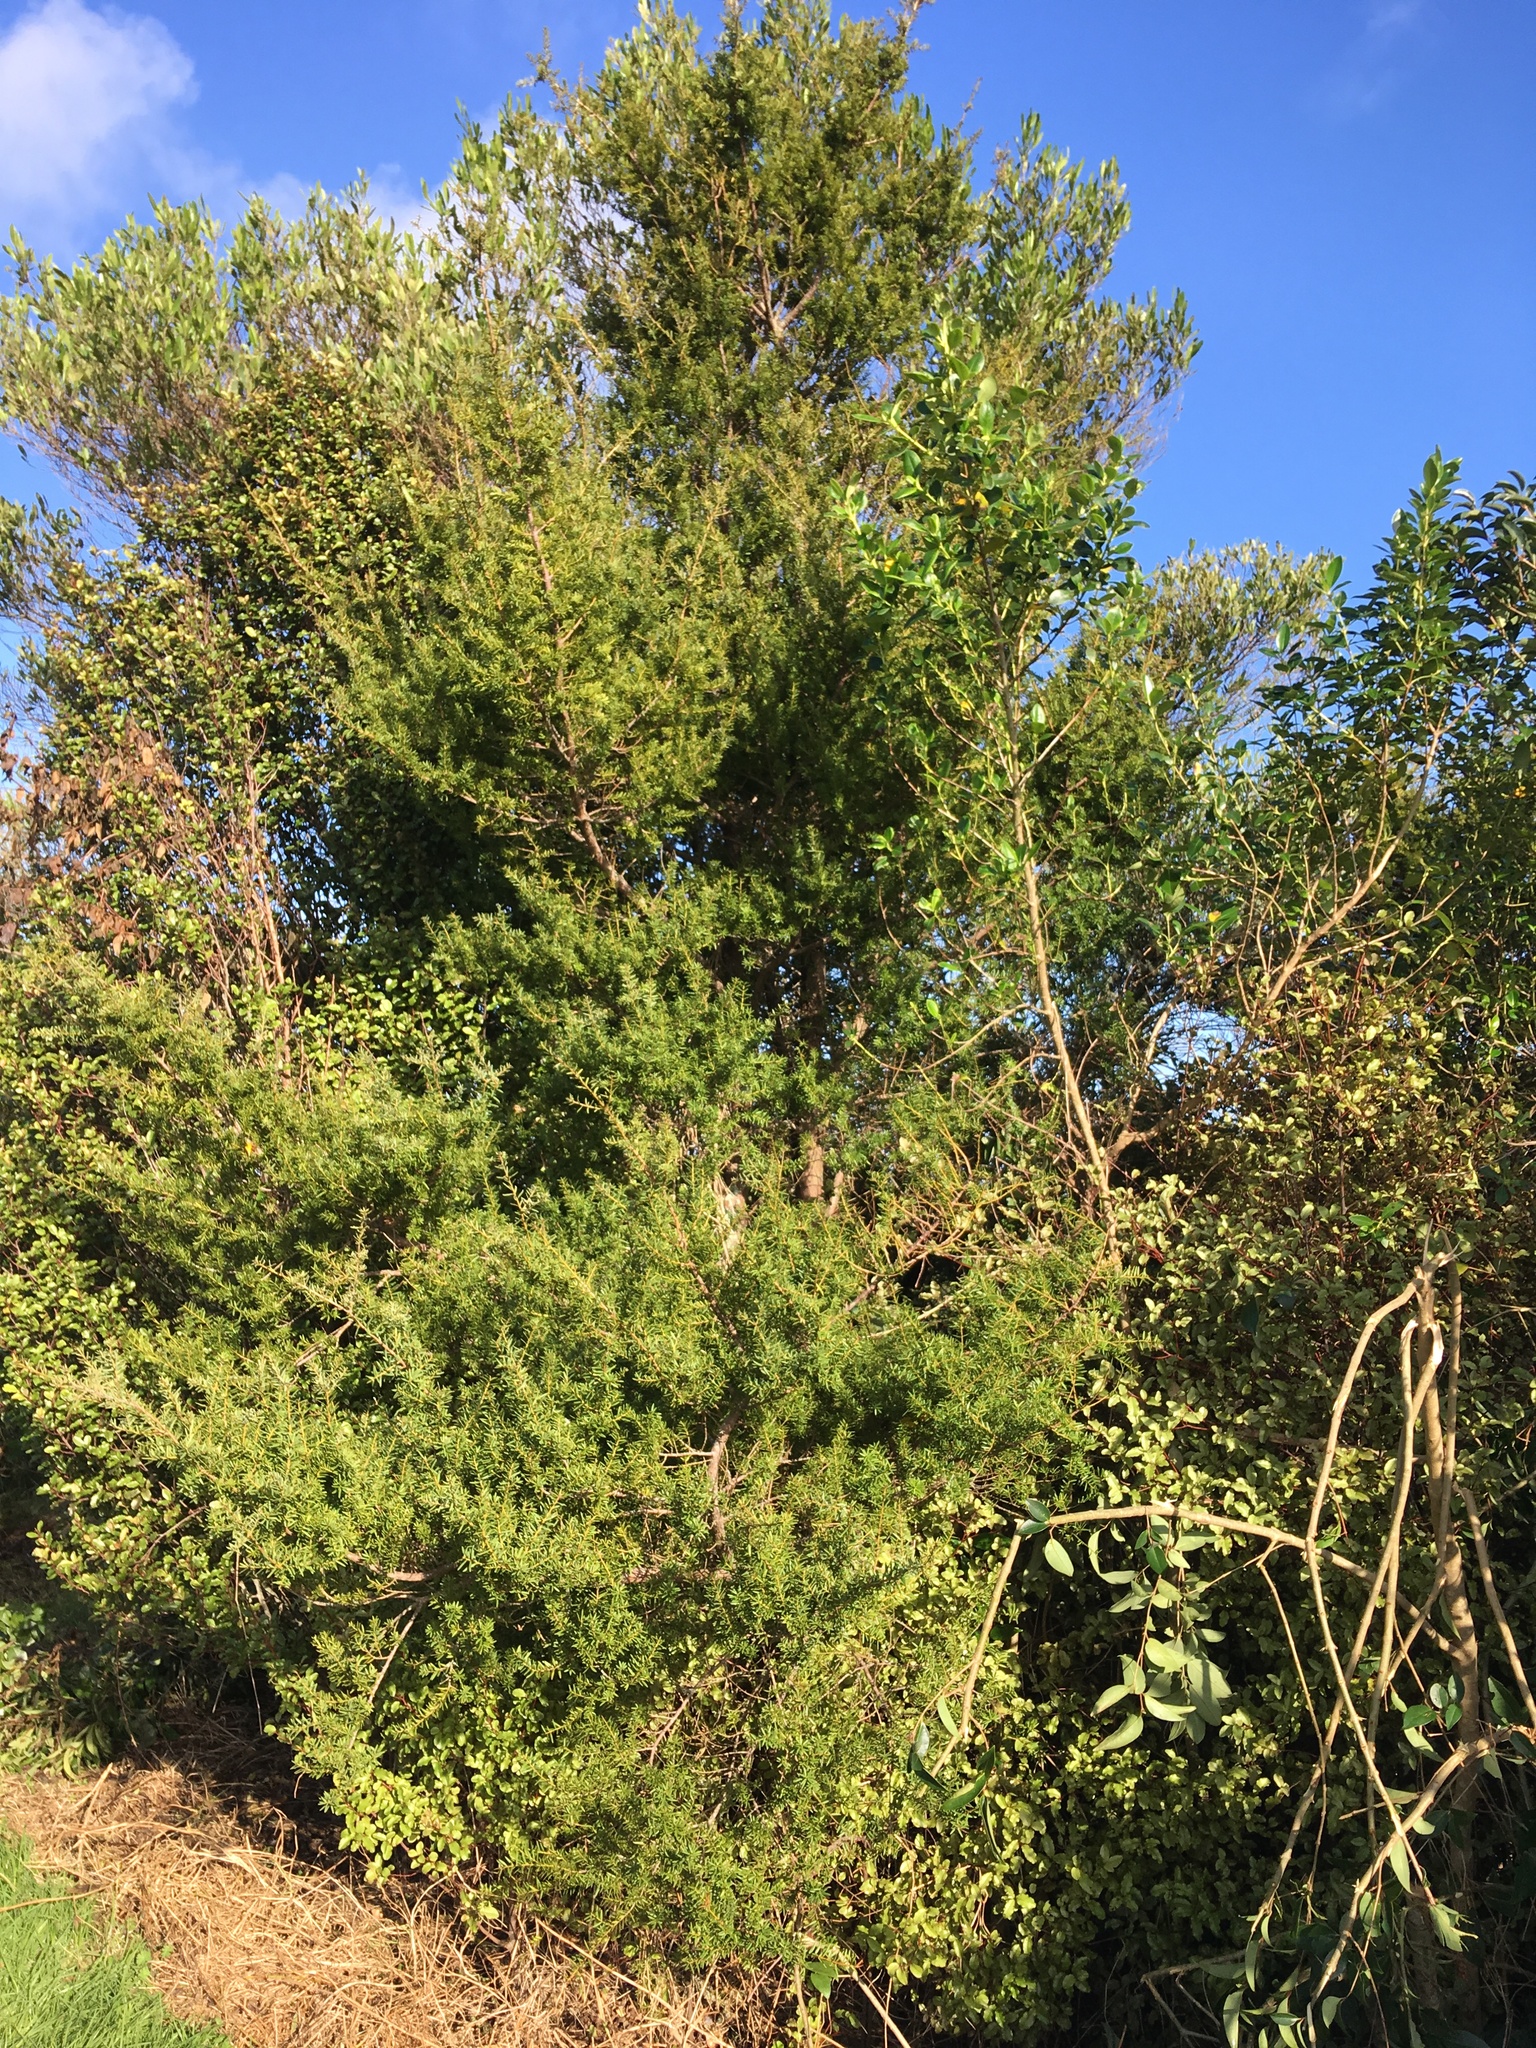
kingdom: Plantae
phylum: Tracheophyta
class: Pinopsida
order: Pinales
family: Podocarpaceae
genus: Podocarpus
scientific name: Podocarpus totara
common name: Totara
